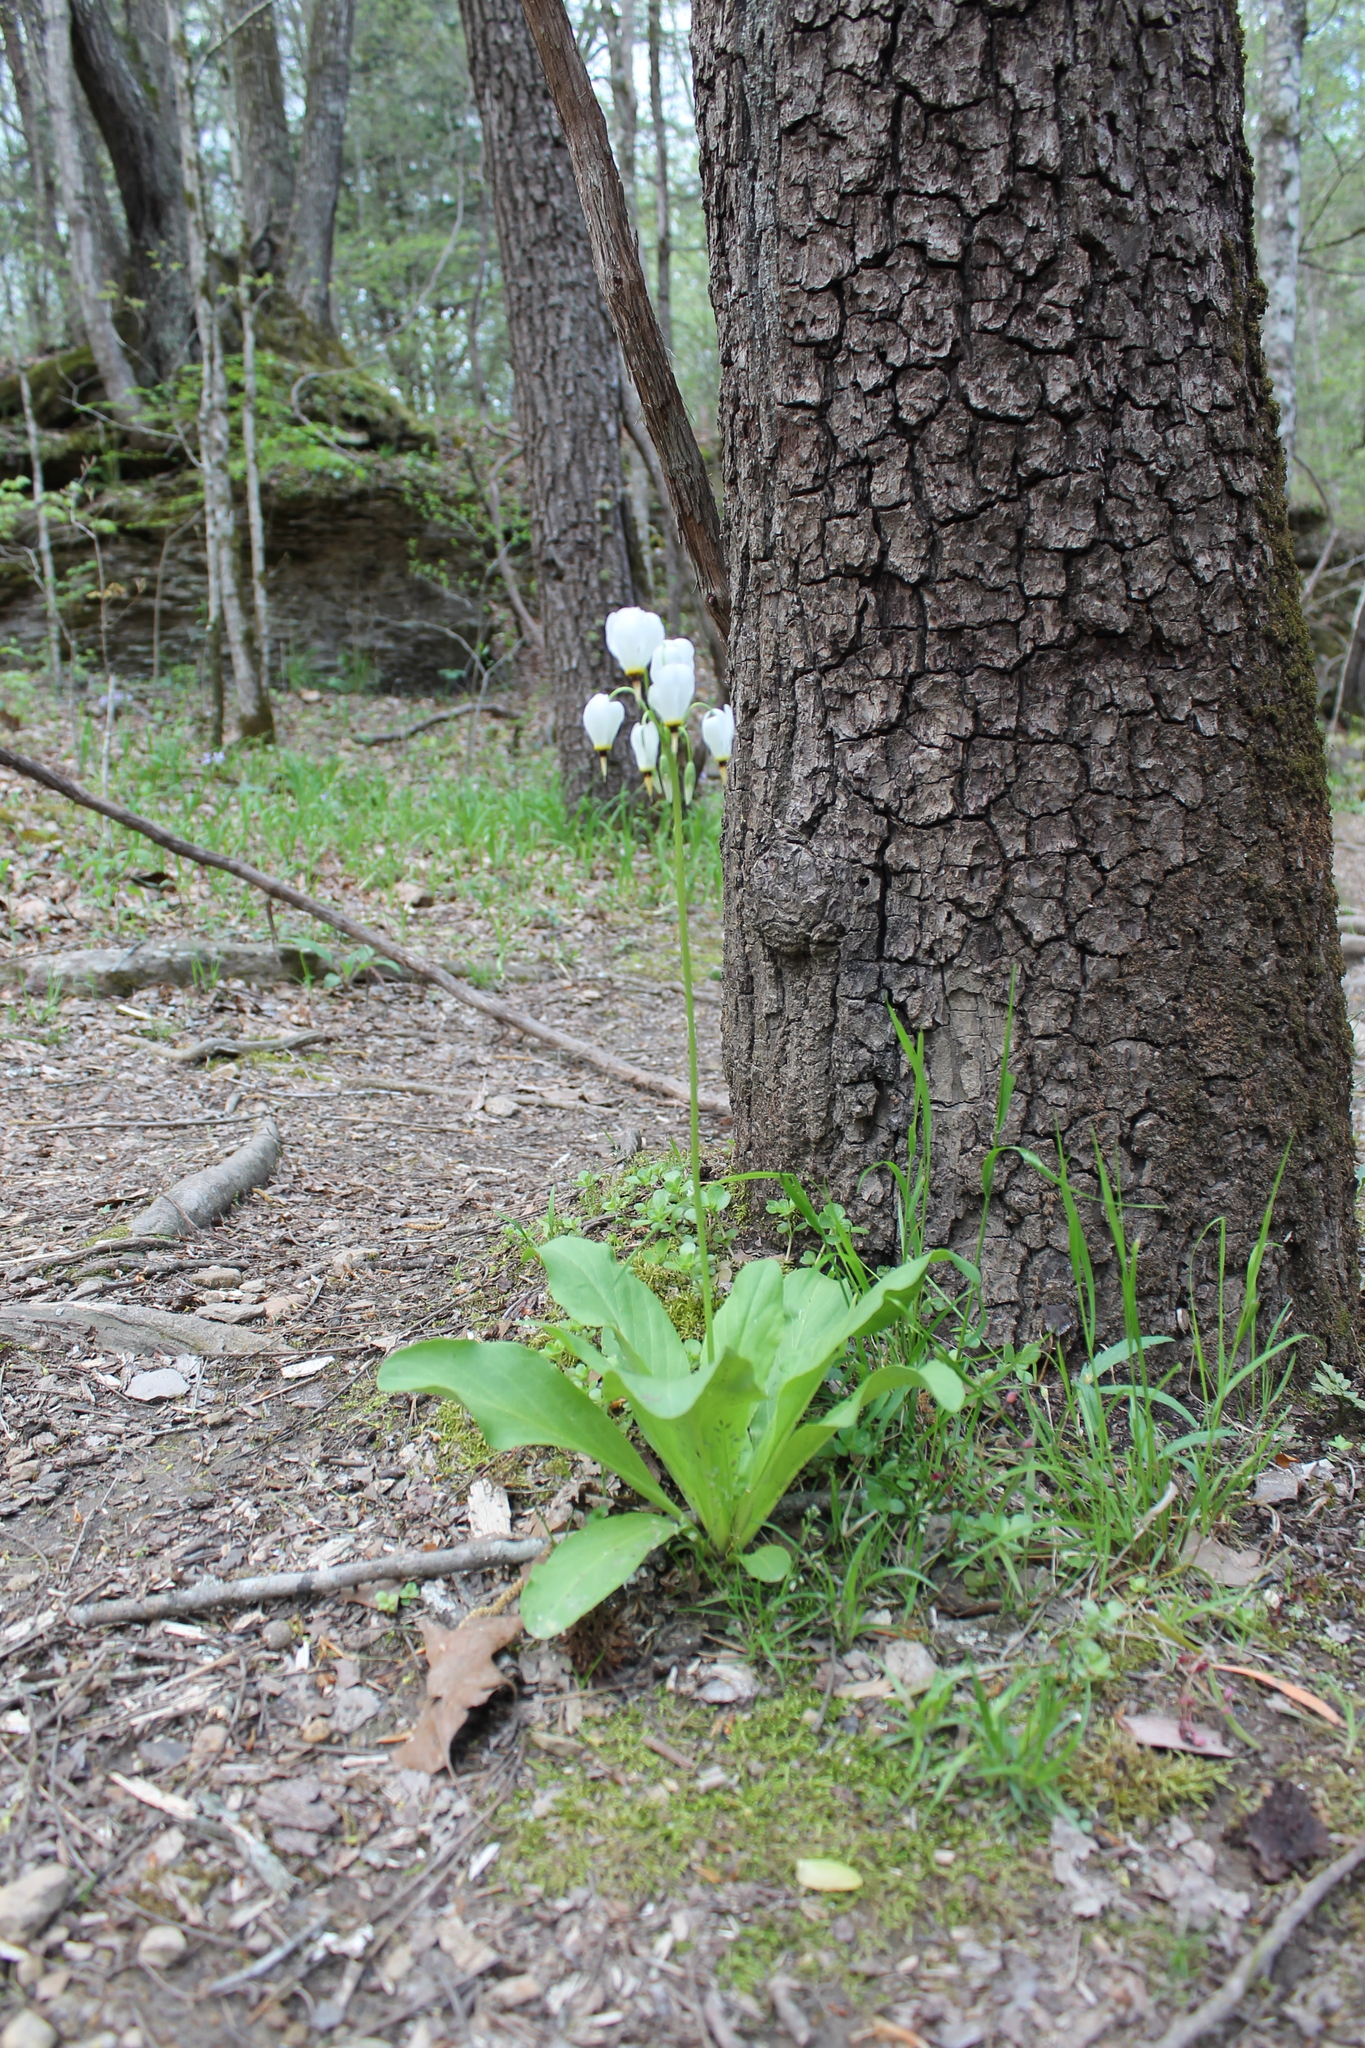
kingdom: Plantae
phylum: Tracheophyta
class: Magnoliopsida
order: Ericales
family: Primulaceae
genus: Dodecatheon
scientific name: Dodecatheon meadia
